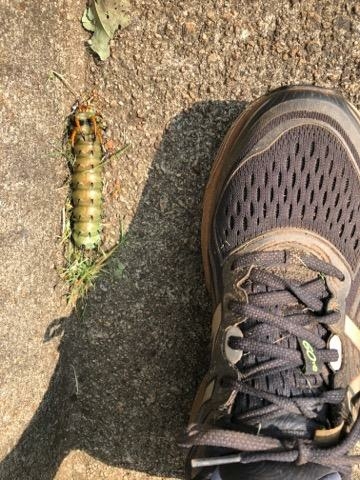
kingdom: Animalia
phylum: Arthropoda
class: Insecta
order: Lepidoptera
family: Saturniidae
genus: Citheronia
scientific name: Citheronia regalis
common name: Hickory horned devil
